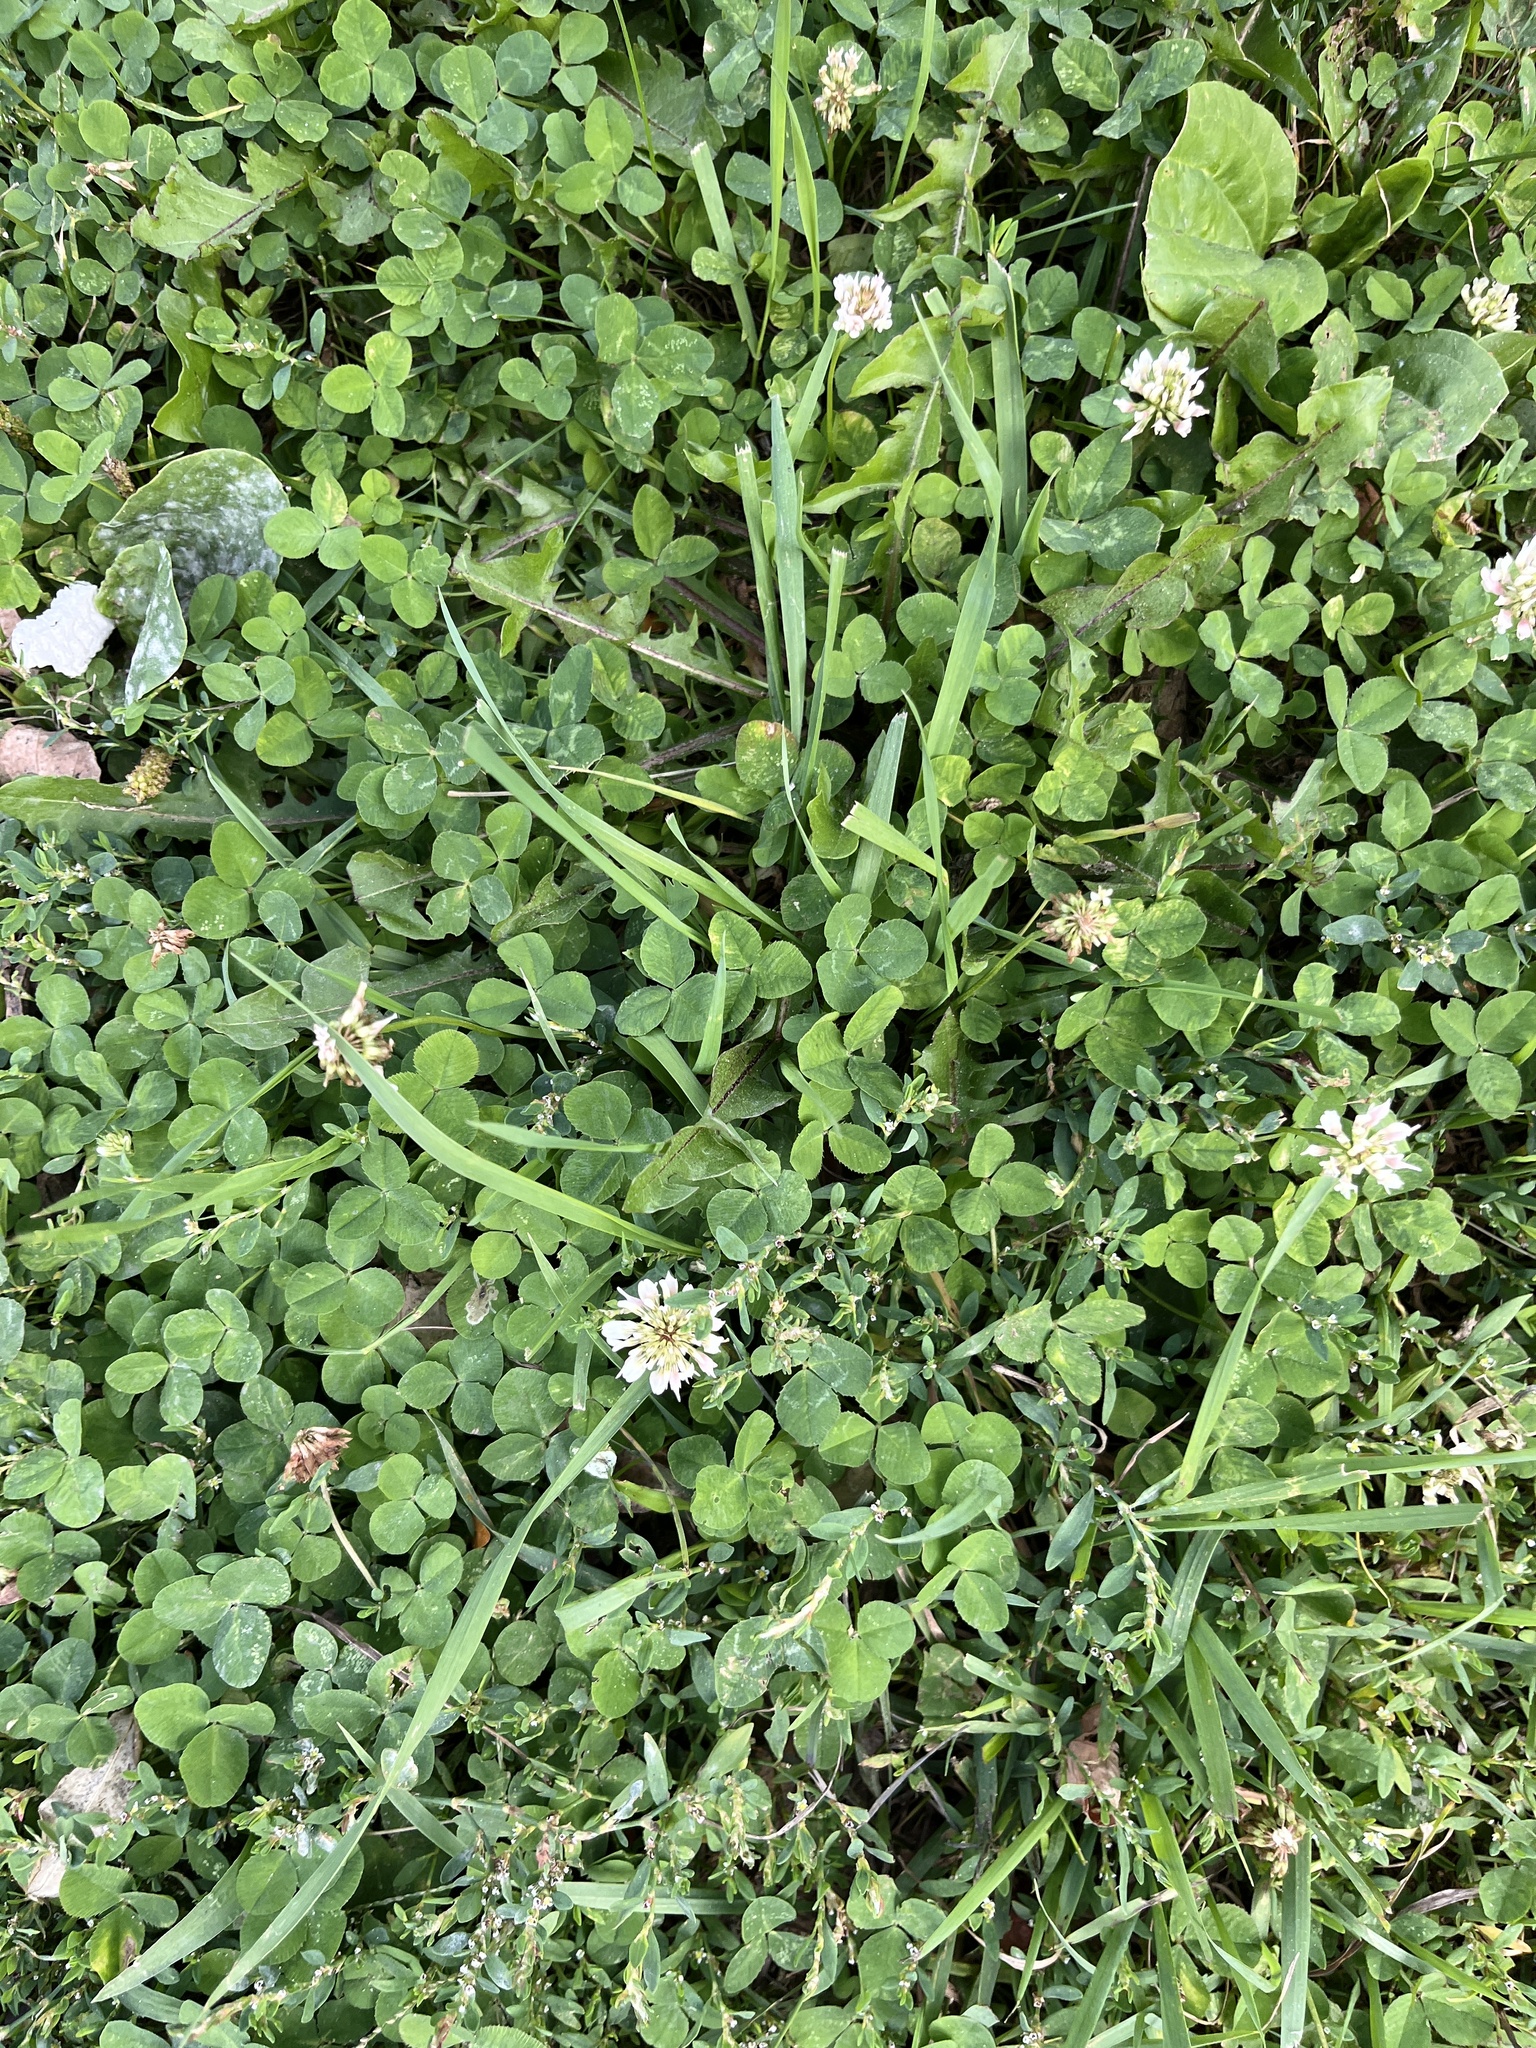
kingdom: Plantae
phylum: Tracheophyta
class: Magnoliopsida
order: Fabales
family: Fabaceae
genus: Trifolium
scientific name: Trifolium repens
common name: White clover
